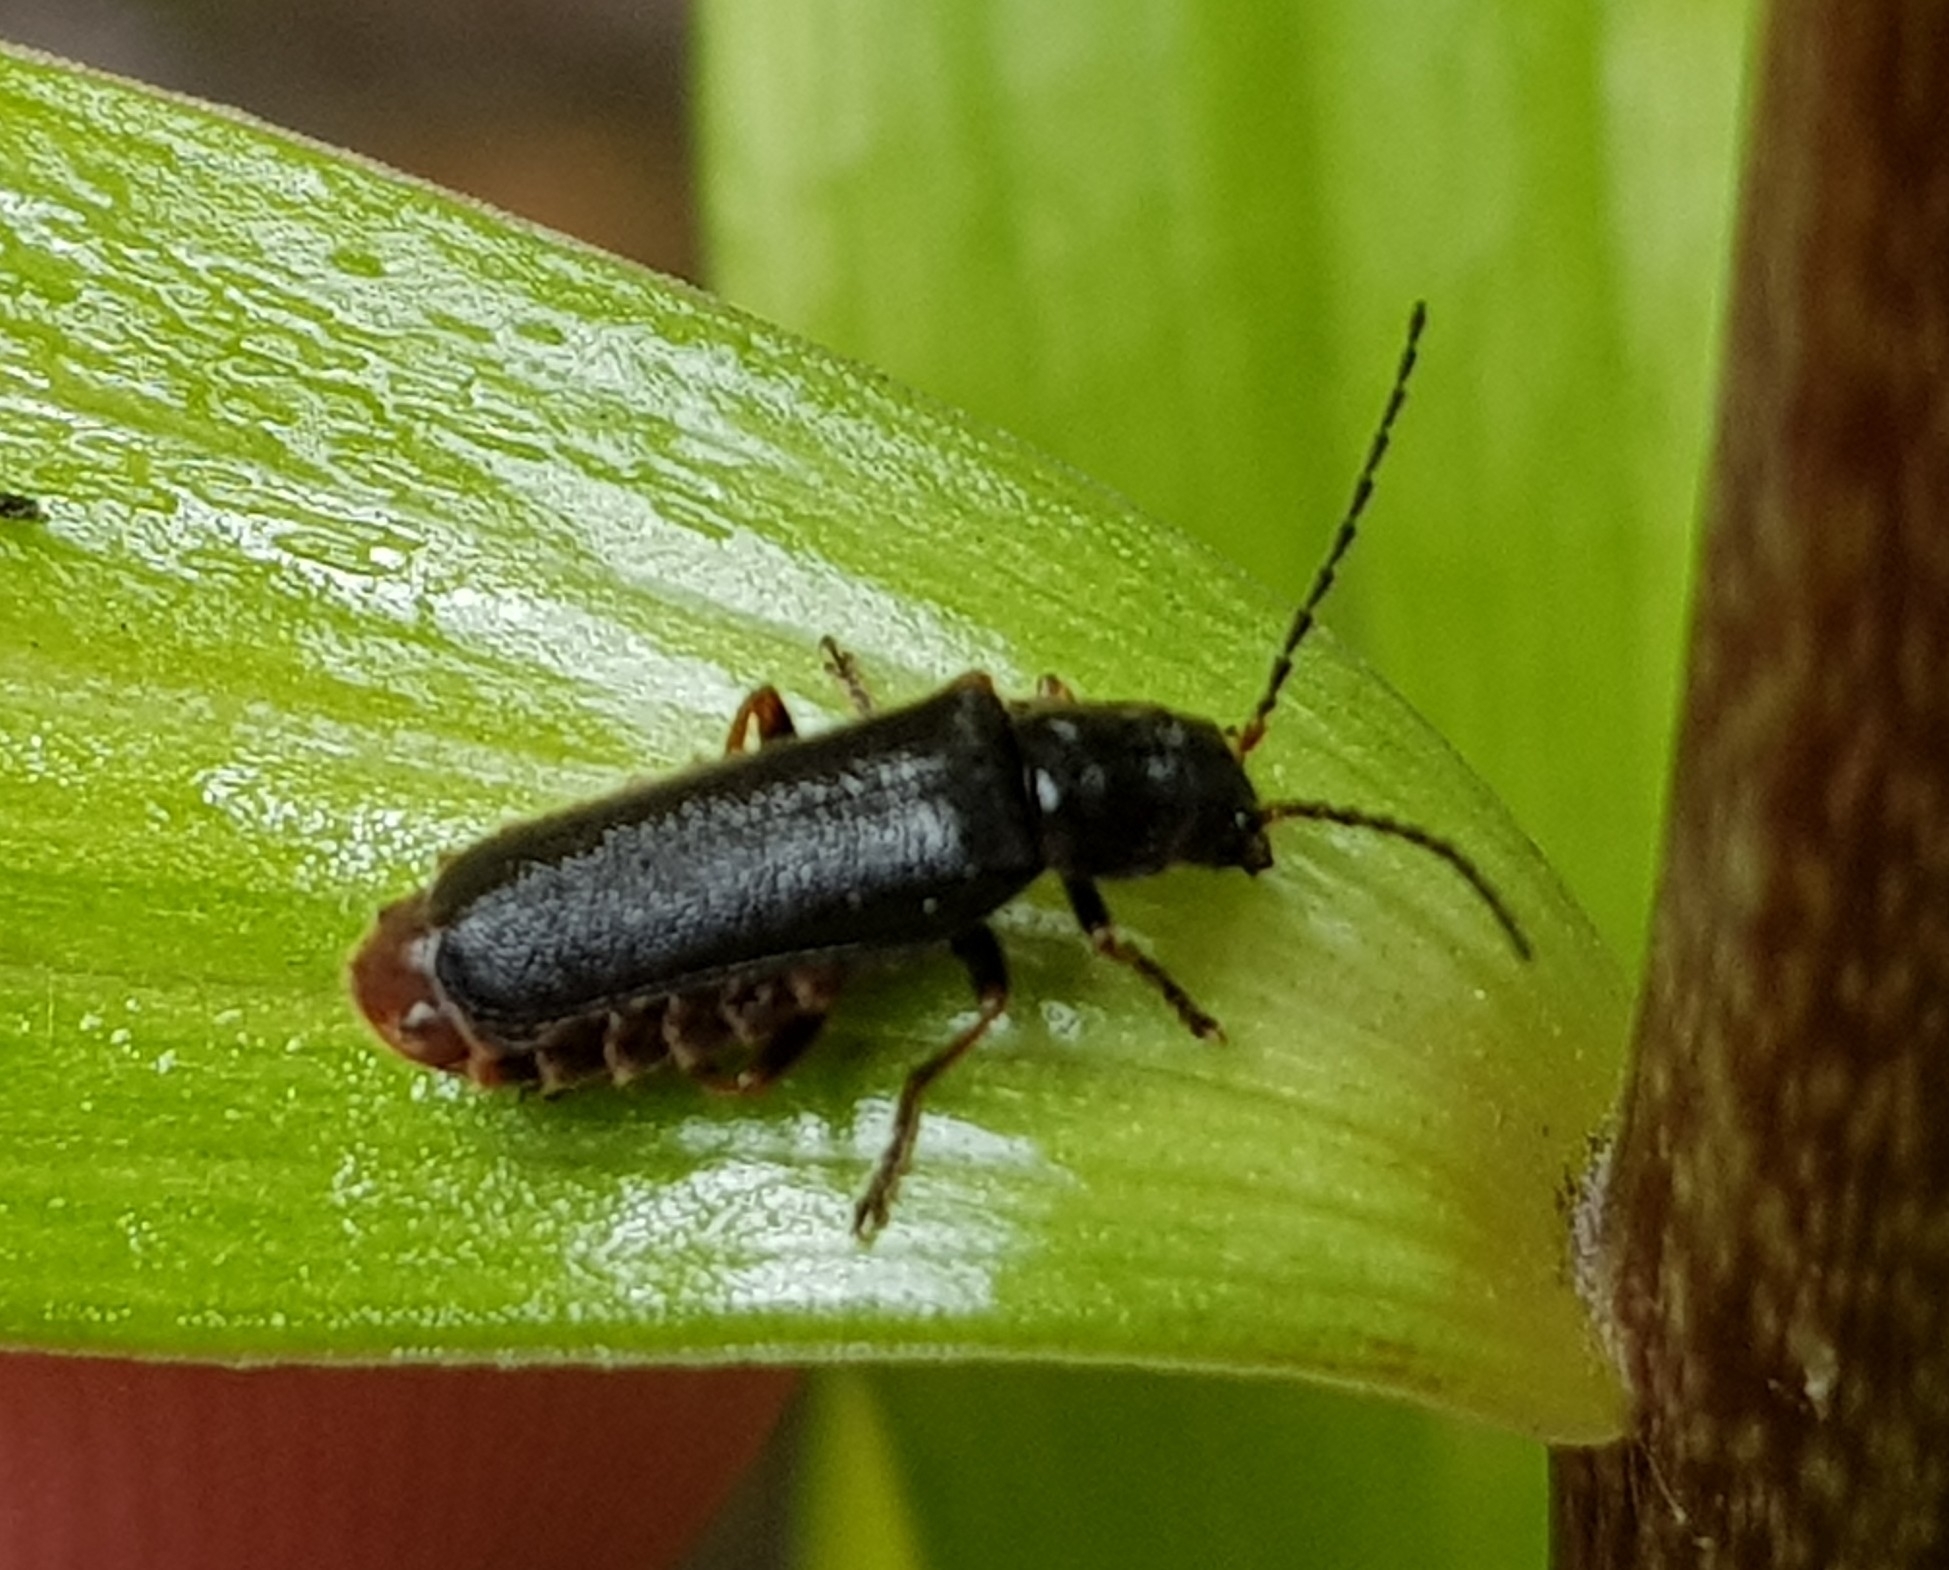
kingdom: Animalia
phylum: Arthropoda
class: Insecta
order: Coleoptera
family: Cantharidae
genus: Cantharis
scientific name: Cantharis flavilabris
